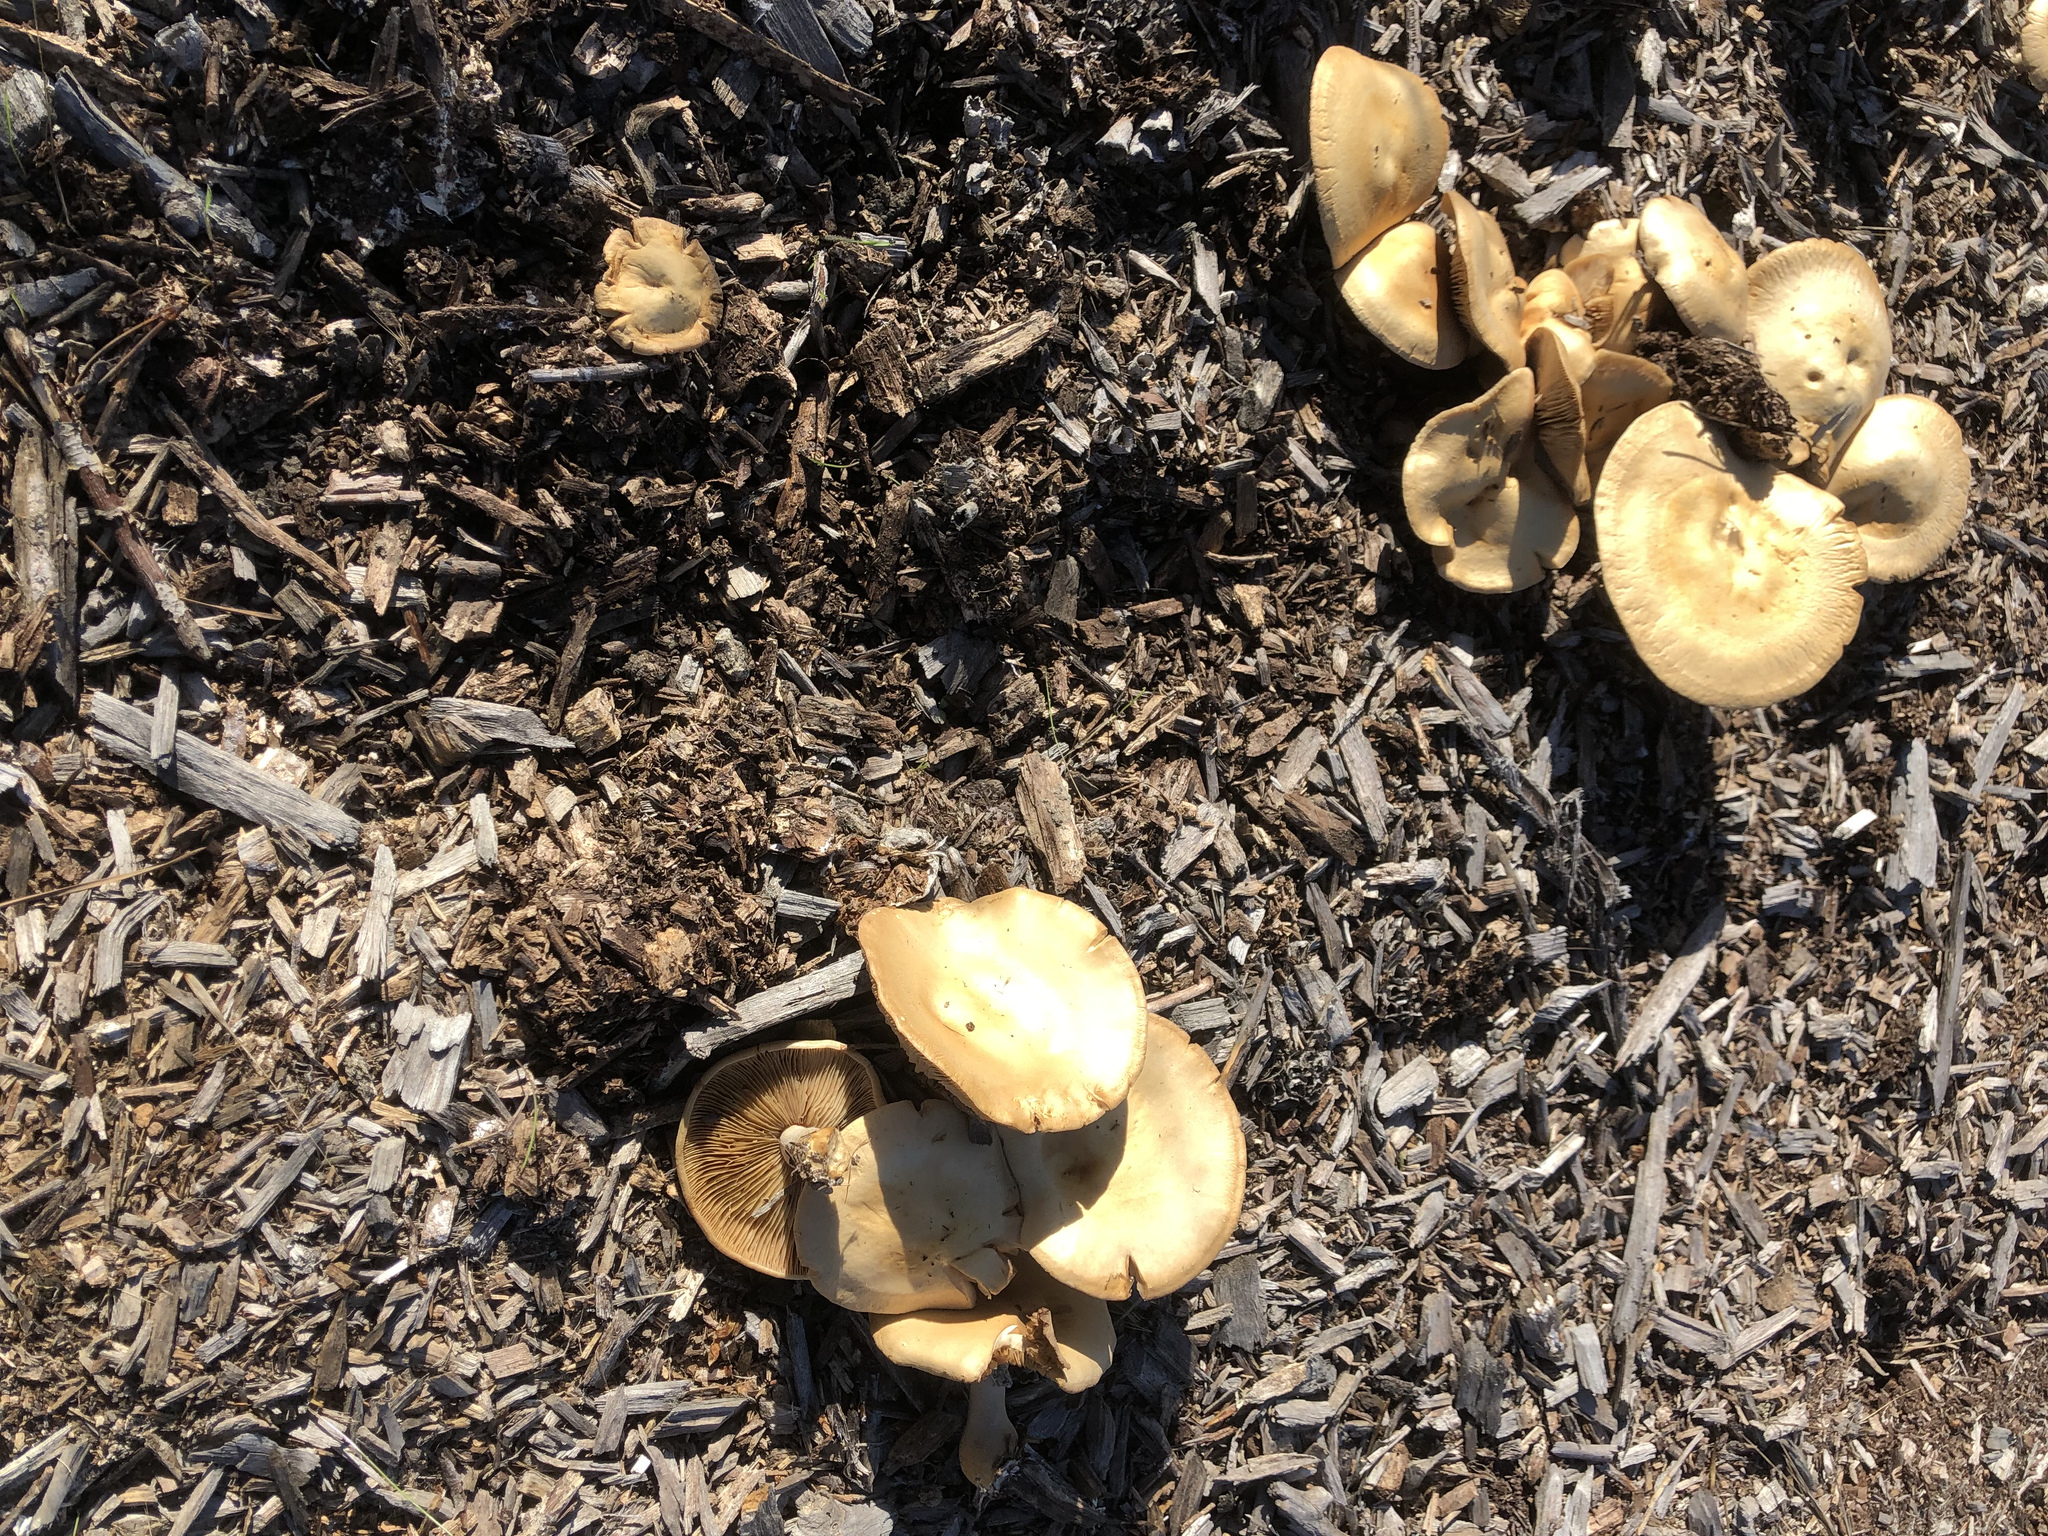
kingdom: Fungi
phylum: Basidiomycota
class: Agaricomycetes
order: Agaricales
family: Strophariaceae
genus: Agrocybe
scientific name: Agrocybe putaminum
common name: Mulch fieldcap
